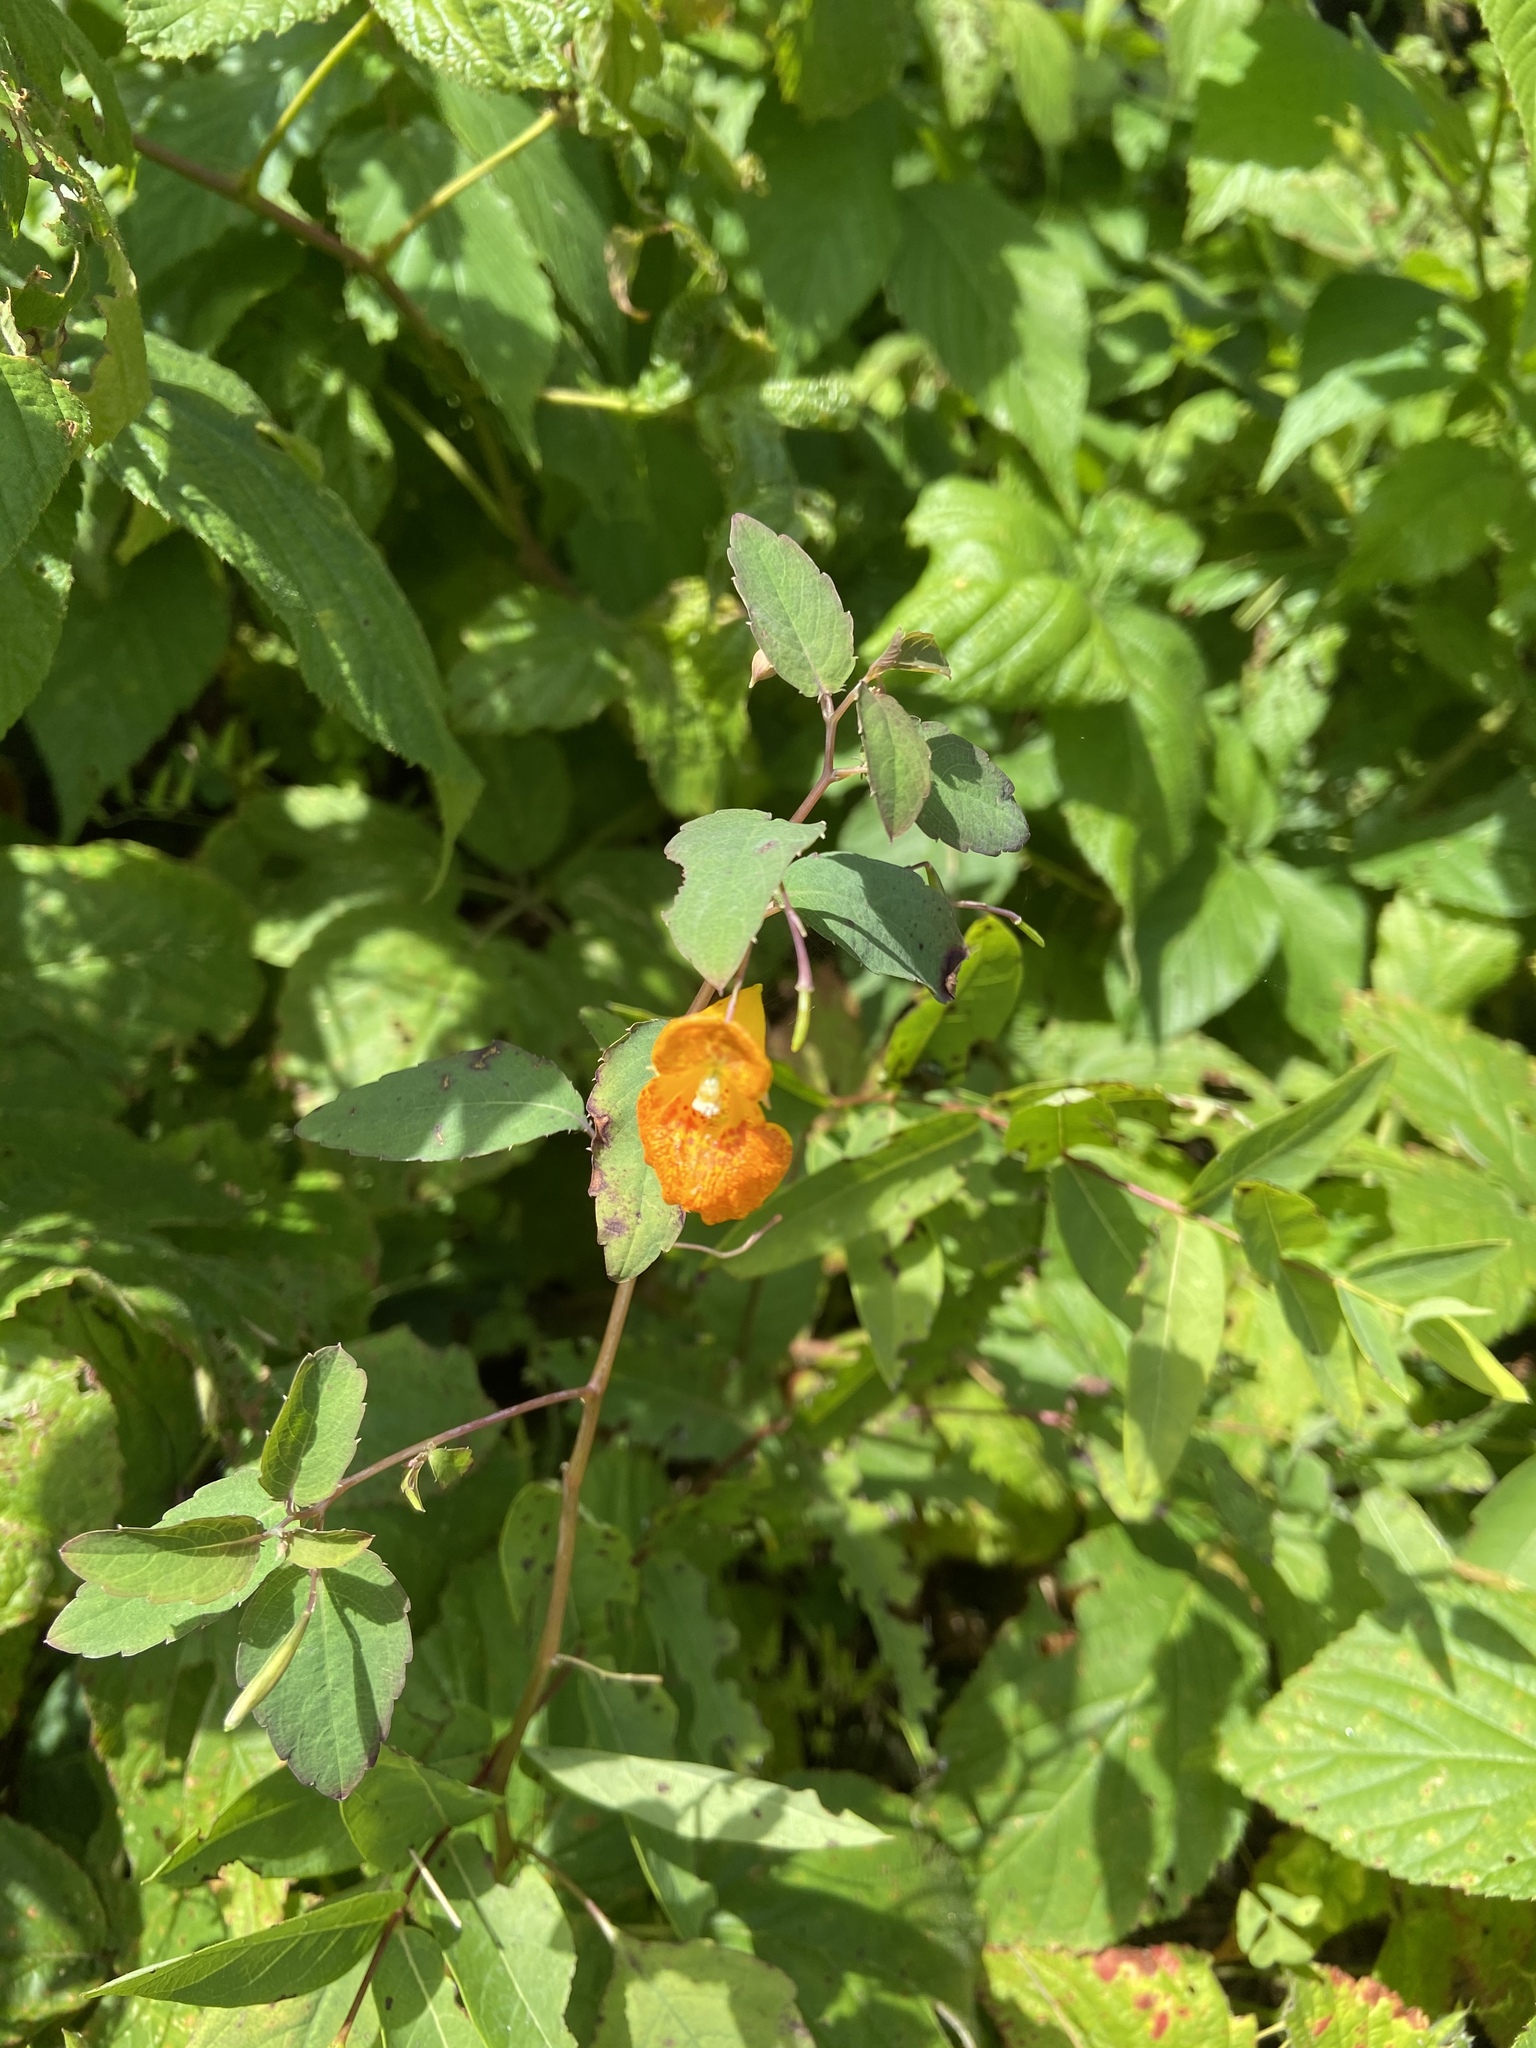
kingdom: Plantae
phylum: Tracheophyta
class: Magnoliopsida
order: Ericales
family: Balsaminaceae
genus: Impatiens
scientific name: Impatiens capensis
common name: Orange balsam
